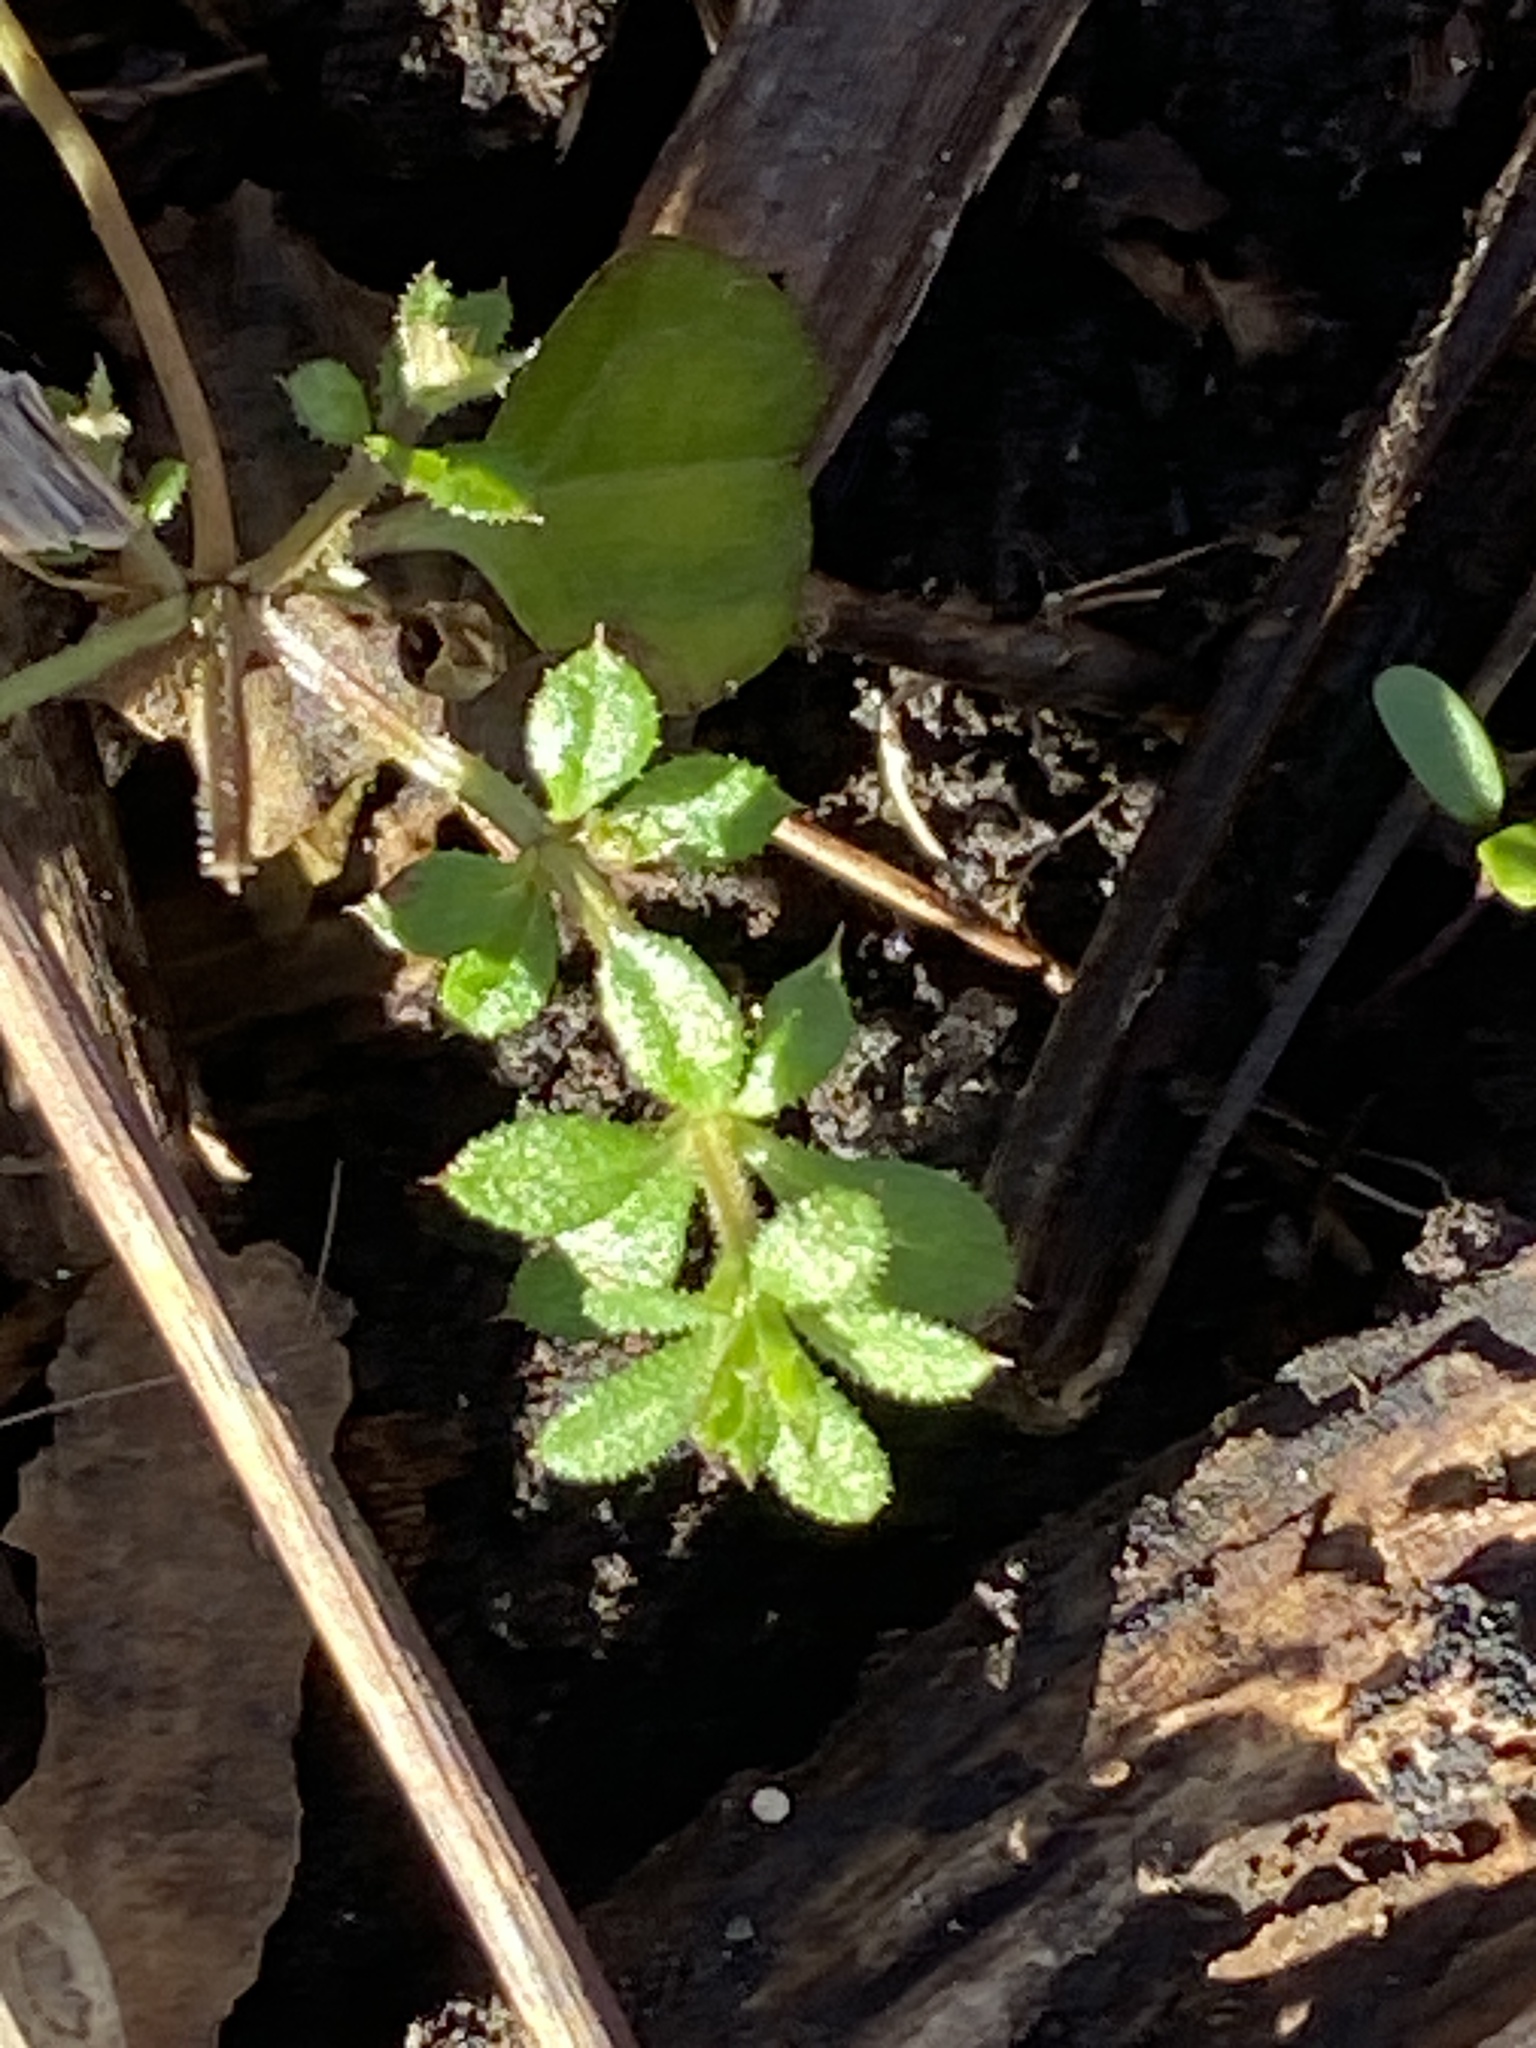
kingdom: Plantae
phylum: Tracheophyta
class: Magnoliopsida
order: Gentianales
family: Rubiaceae
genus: Galium
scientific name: Galium aparine
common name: Cleavers
